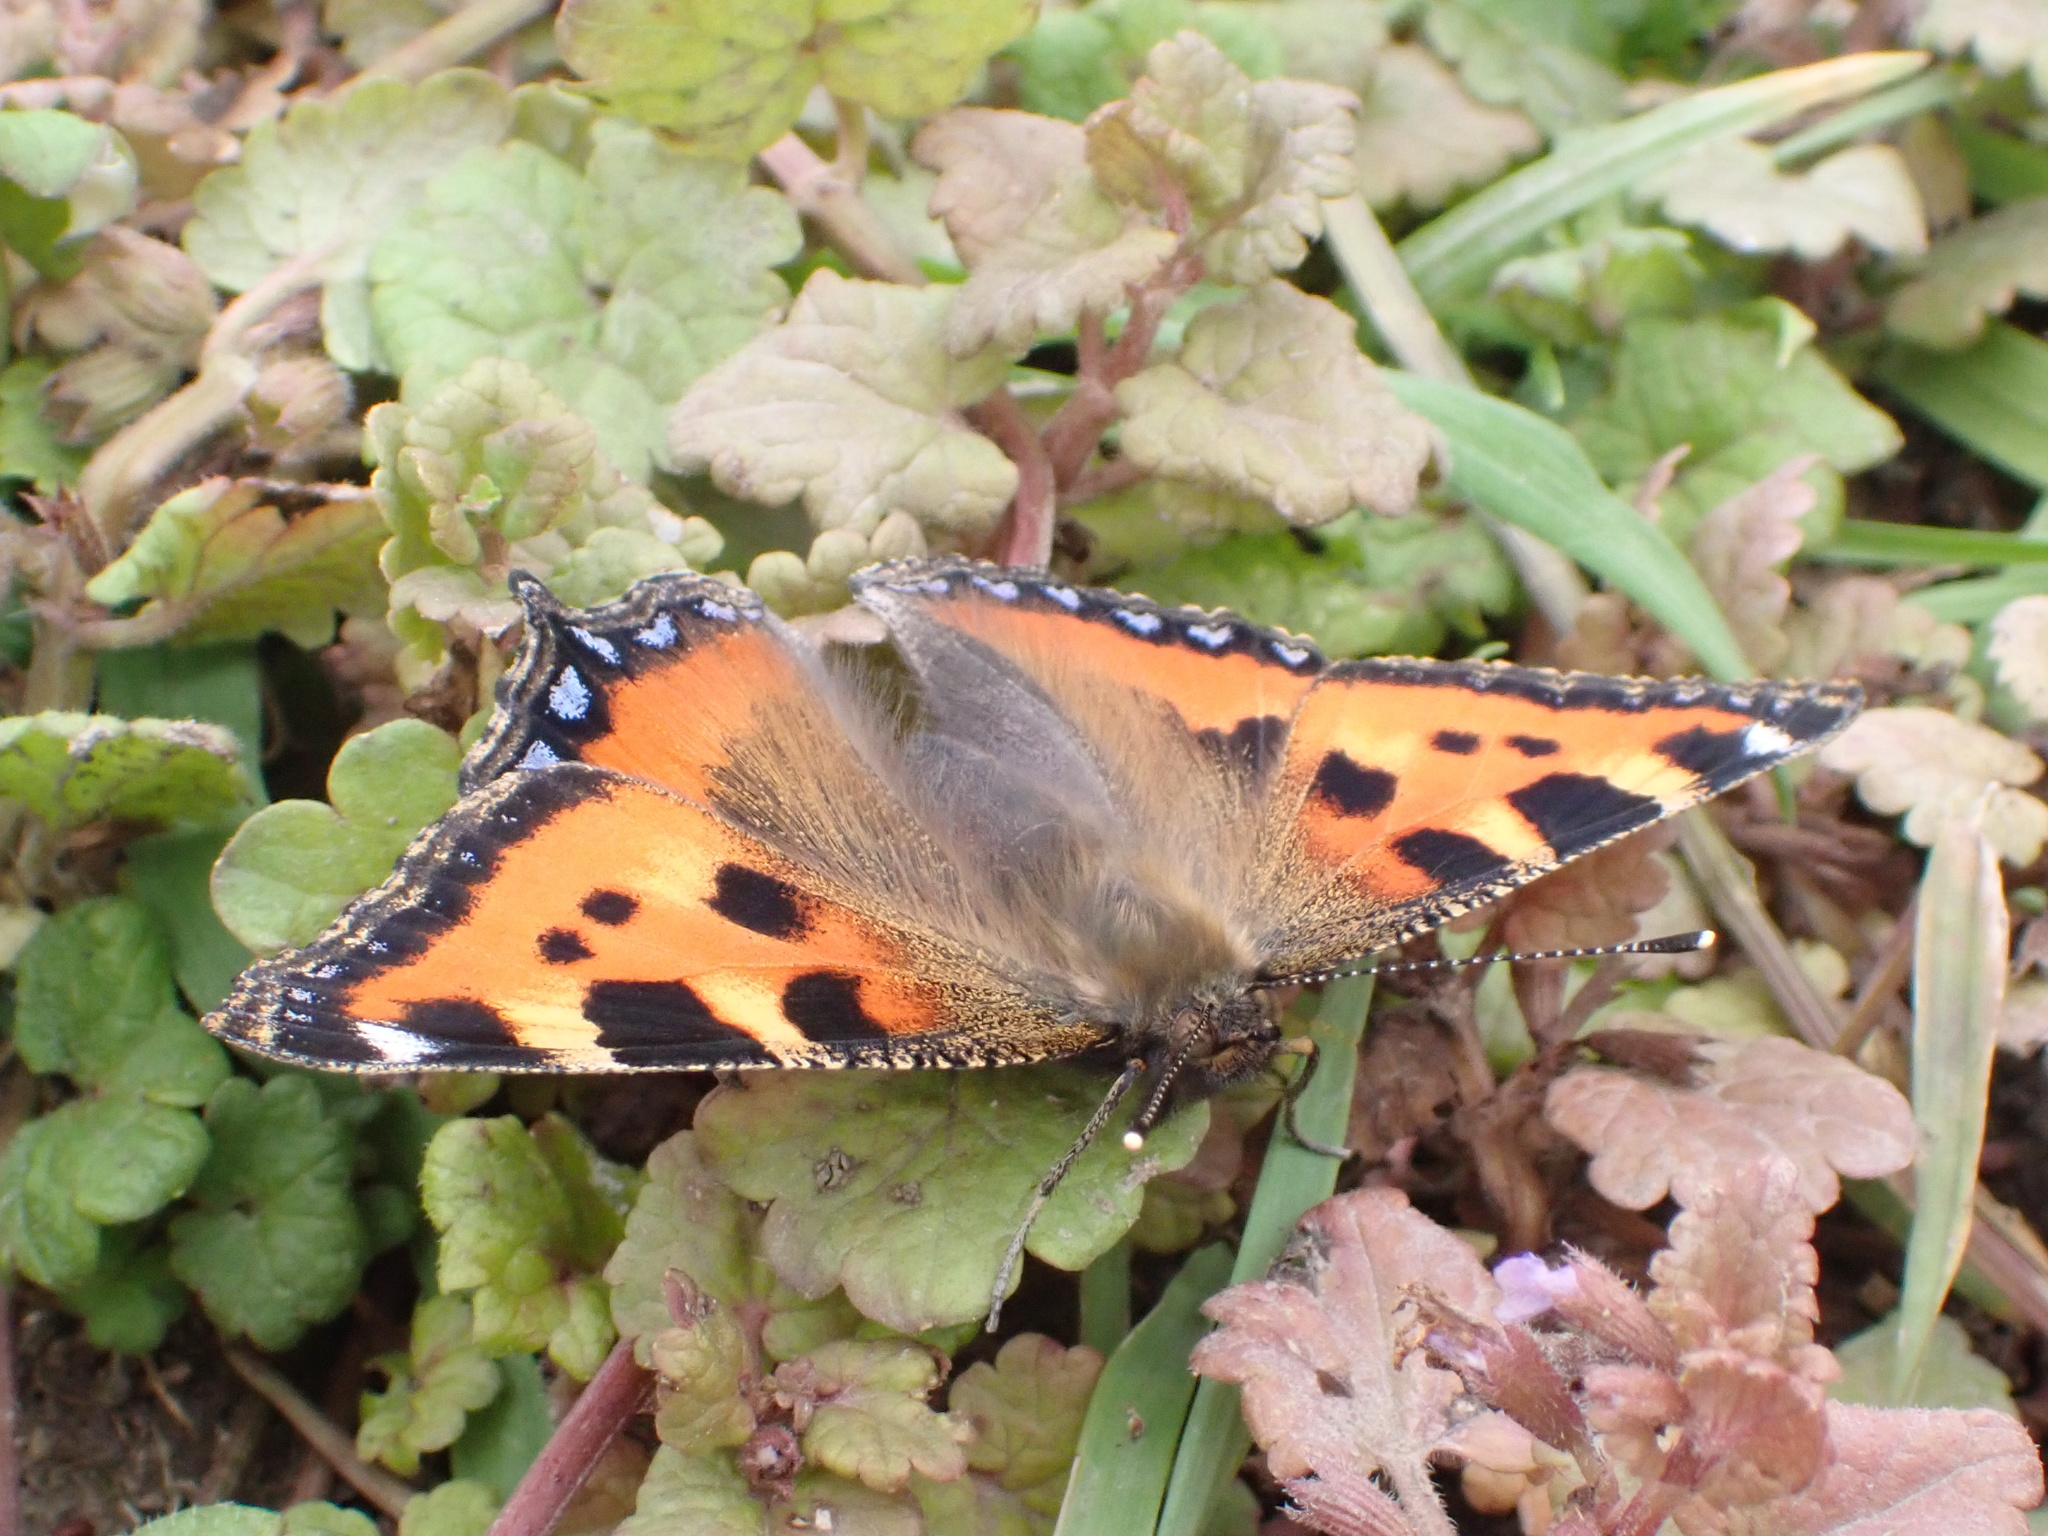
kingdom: Animalia
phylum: Arthropoda
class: Insecta
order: Lepidoptera
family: Nymphalidae
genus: Aglais
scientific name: Aglais urticae
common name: Small tortoiseshell
